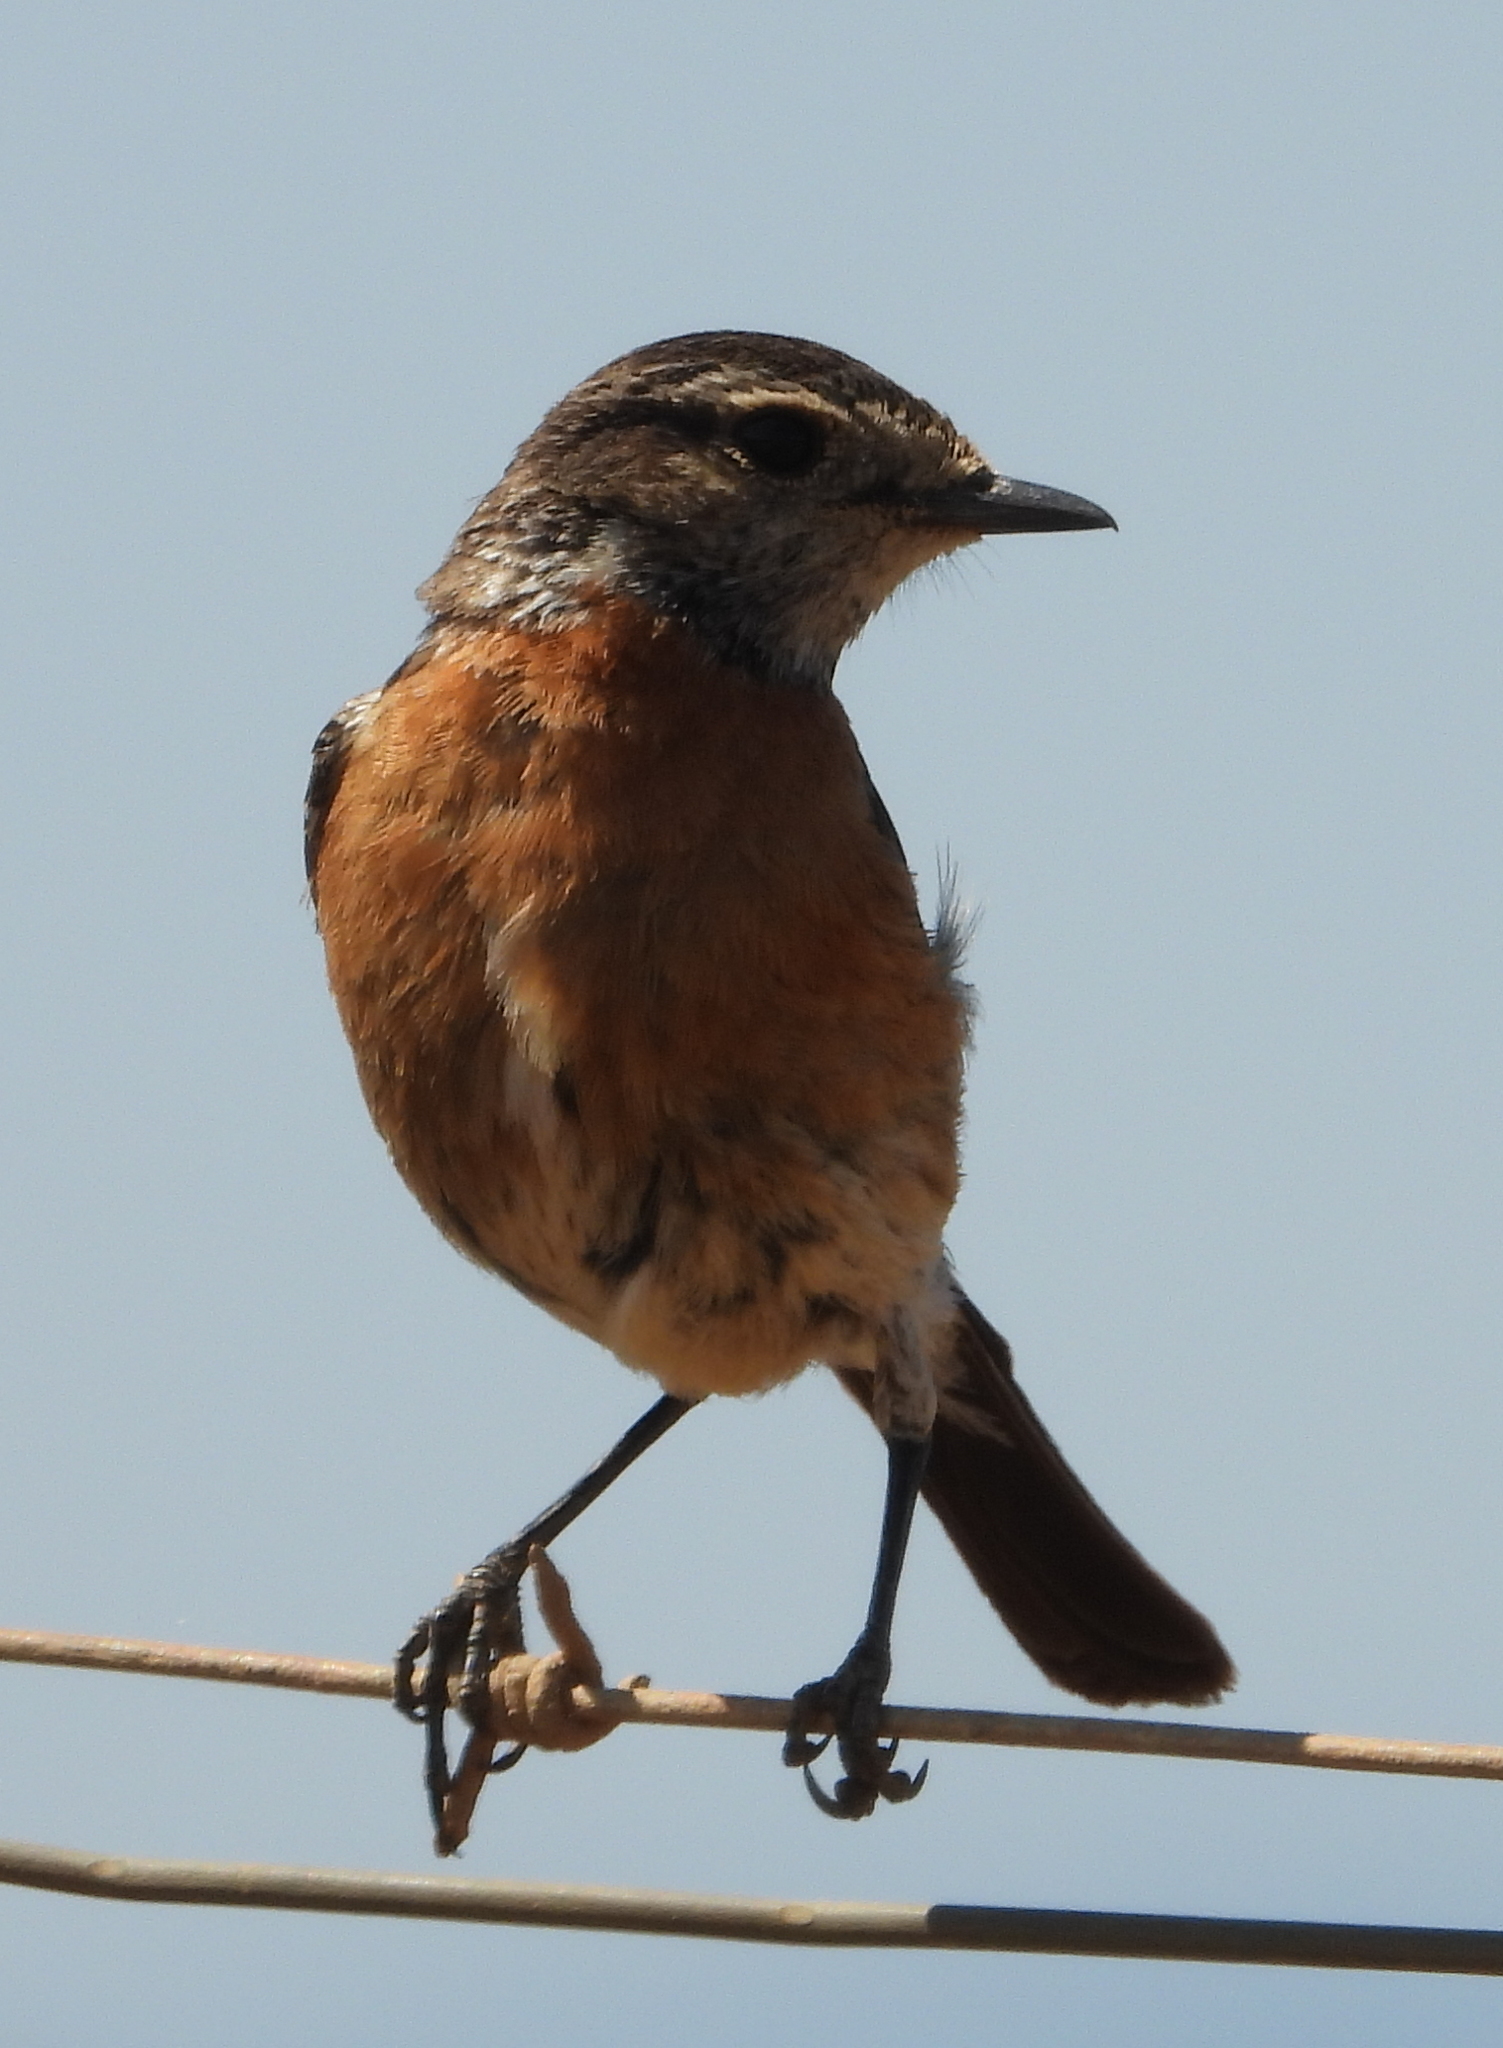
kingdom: Animalia
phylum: Chordata
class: Aves
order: Passeriformes
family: Muscicapidae
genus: Saxicola
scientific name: Saxicola torquatus
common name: African stonechat
